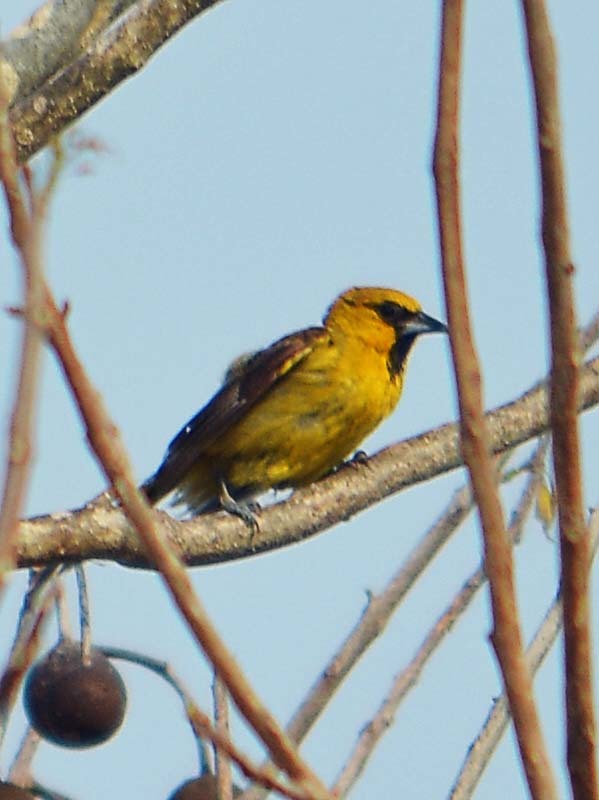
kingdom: Animalia
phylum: Chordata
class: Aves
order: Passeriformes
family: Icteridae
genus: Icterus
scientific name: Icterus bullockii
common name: Bullock's oriole
